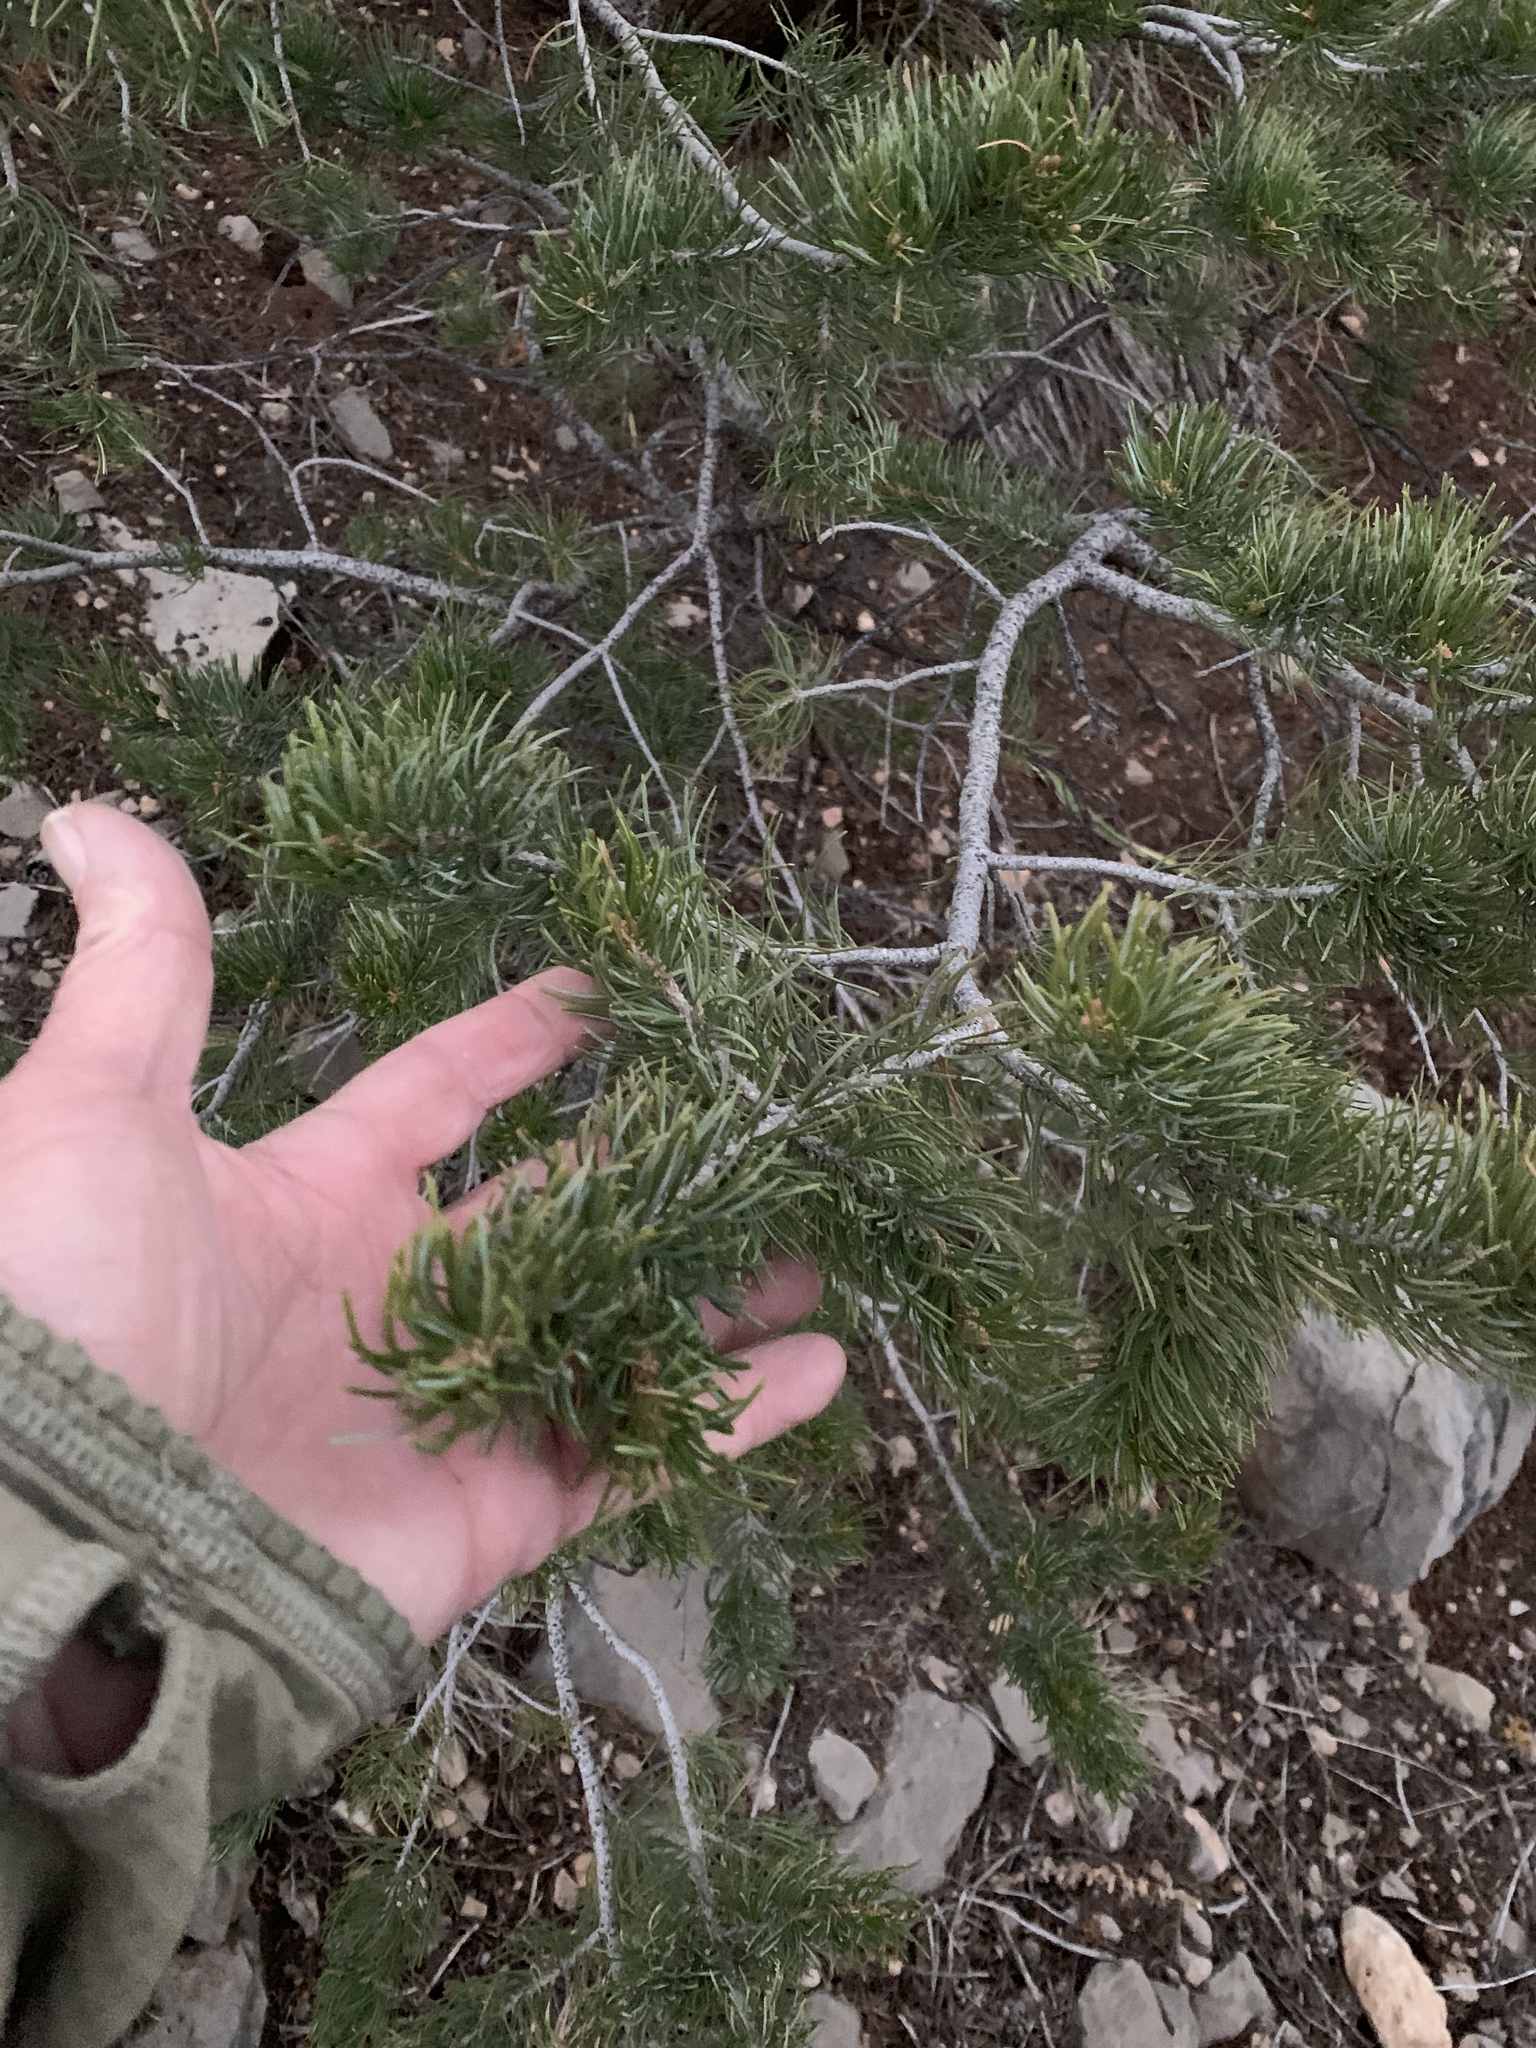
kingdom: Plantae
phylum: Tracheophyta
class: Pinopsida
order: Pinales
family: Pinaceae
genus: Pinus
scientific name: Pinus edulis
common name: Colorado pinyon
